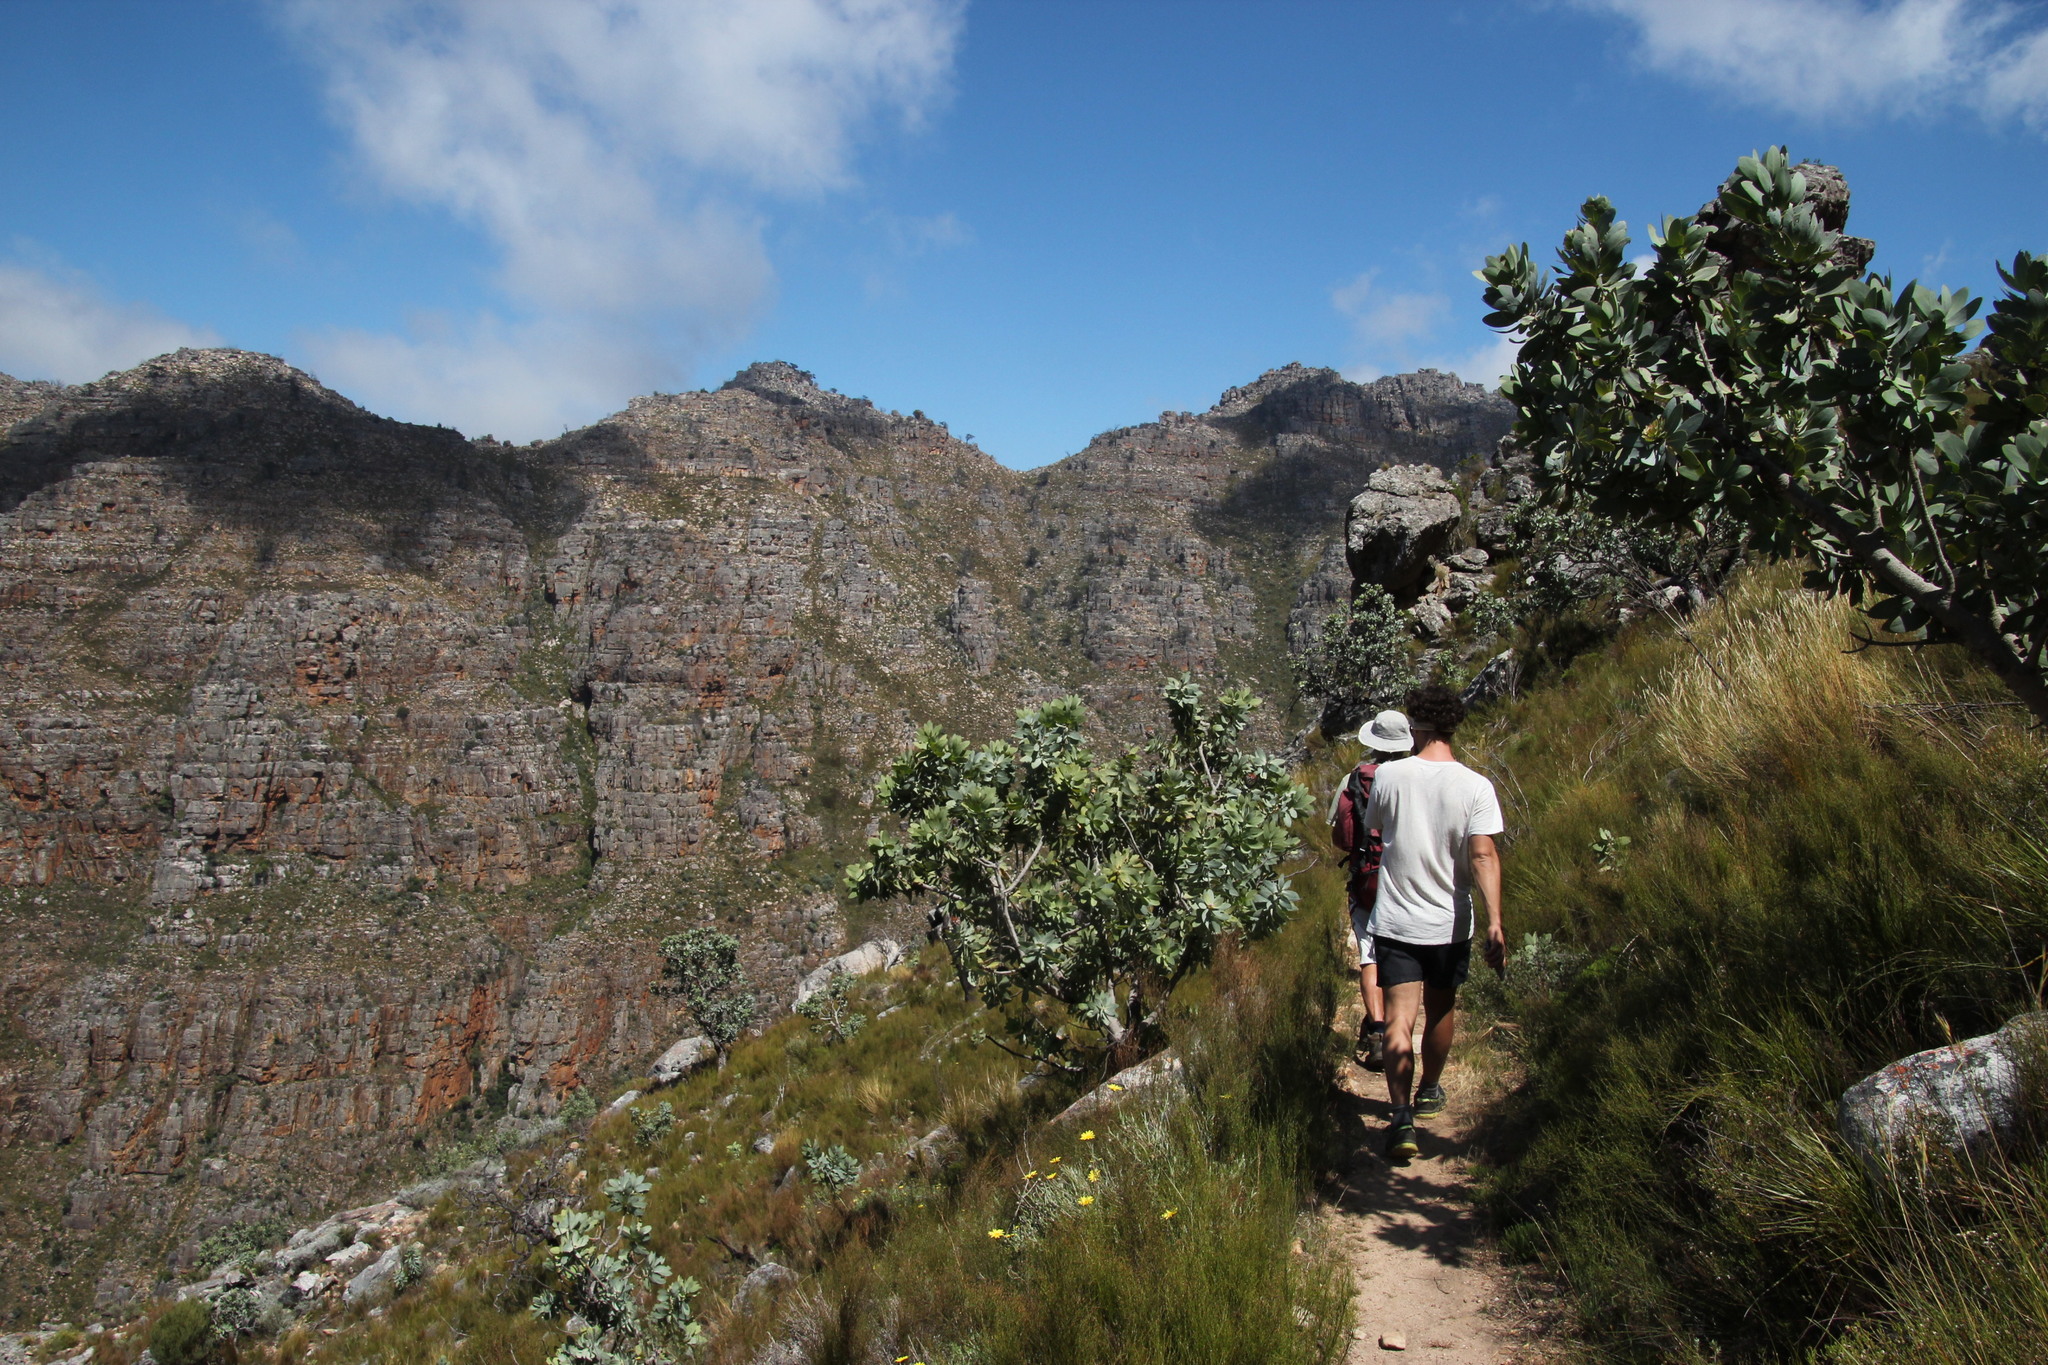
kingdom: Plantae
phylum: Tracheophyta
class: Magnoliopsida
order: Proteales
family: Proteaceae
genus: Protea
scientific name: Protea nitida
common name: Tree protea
